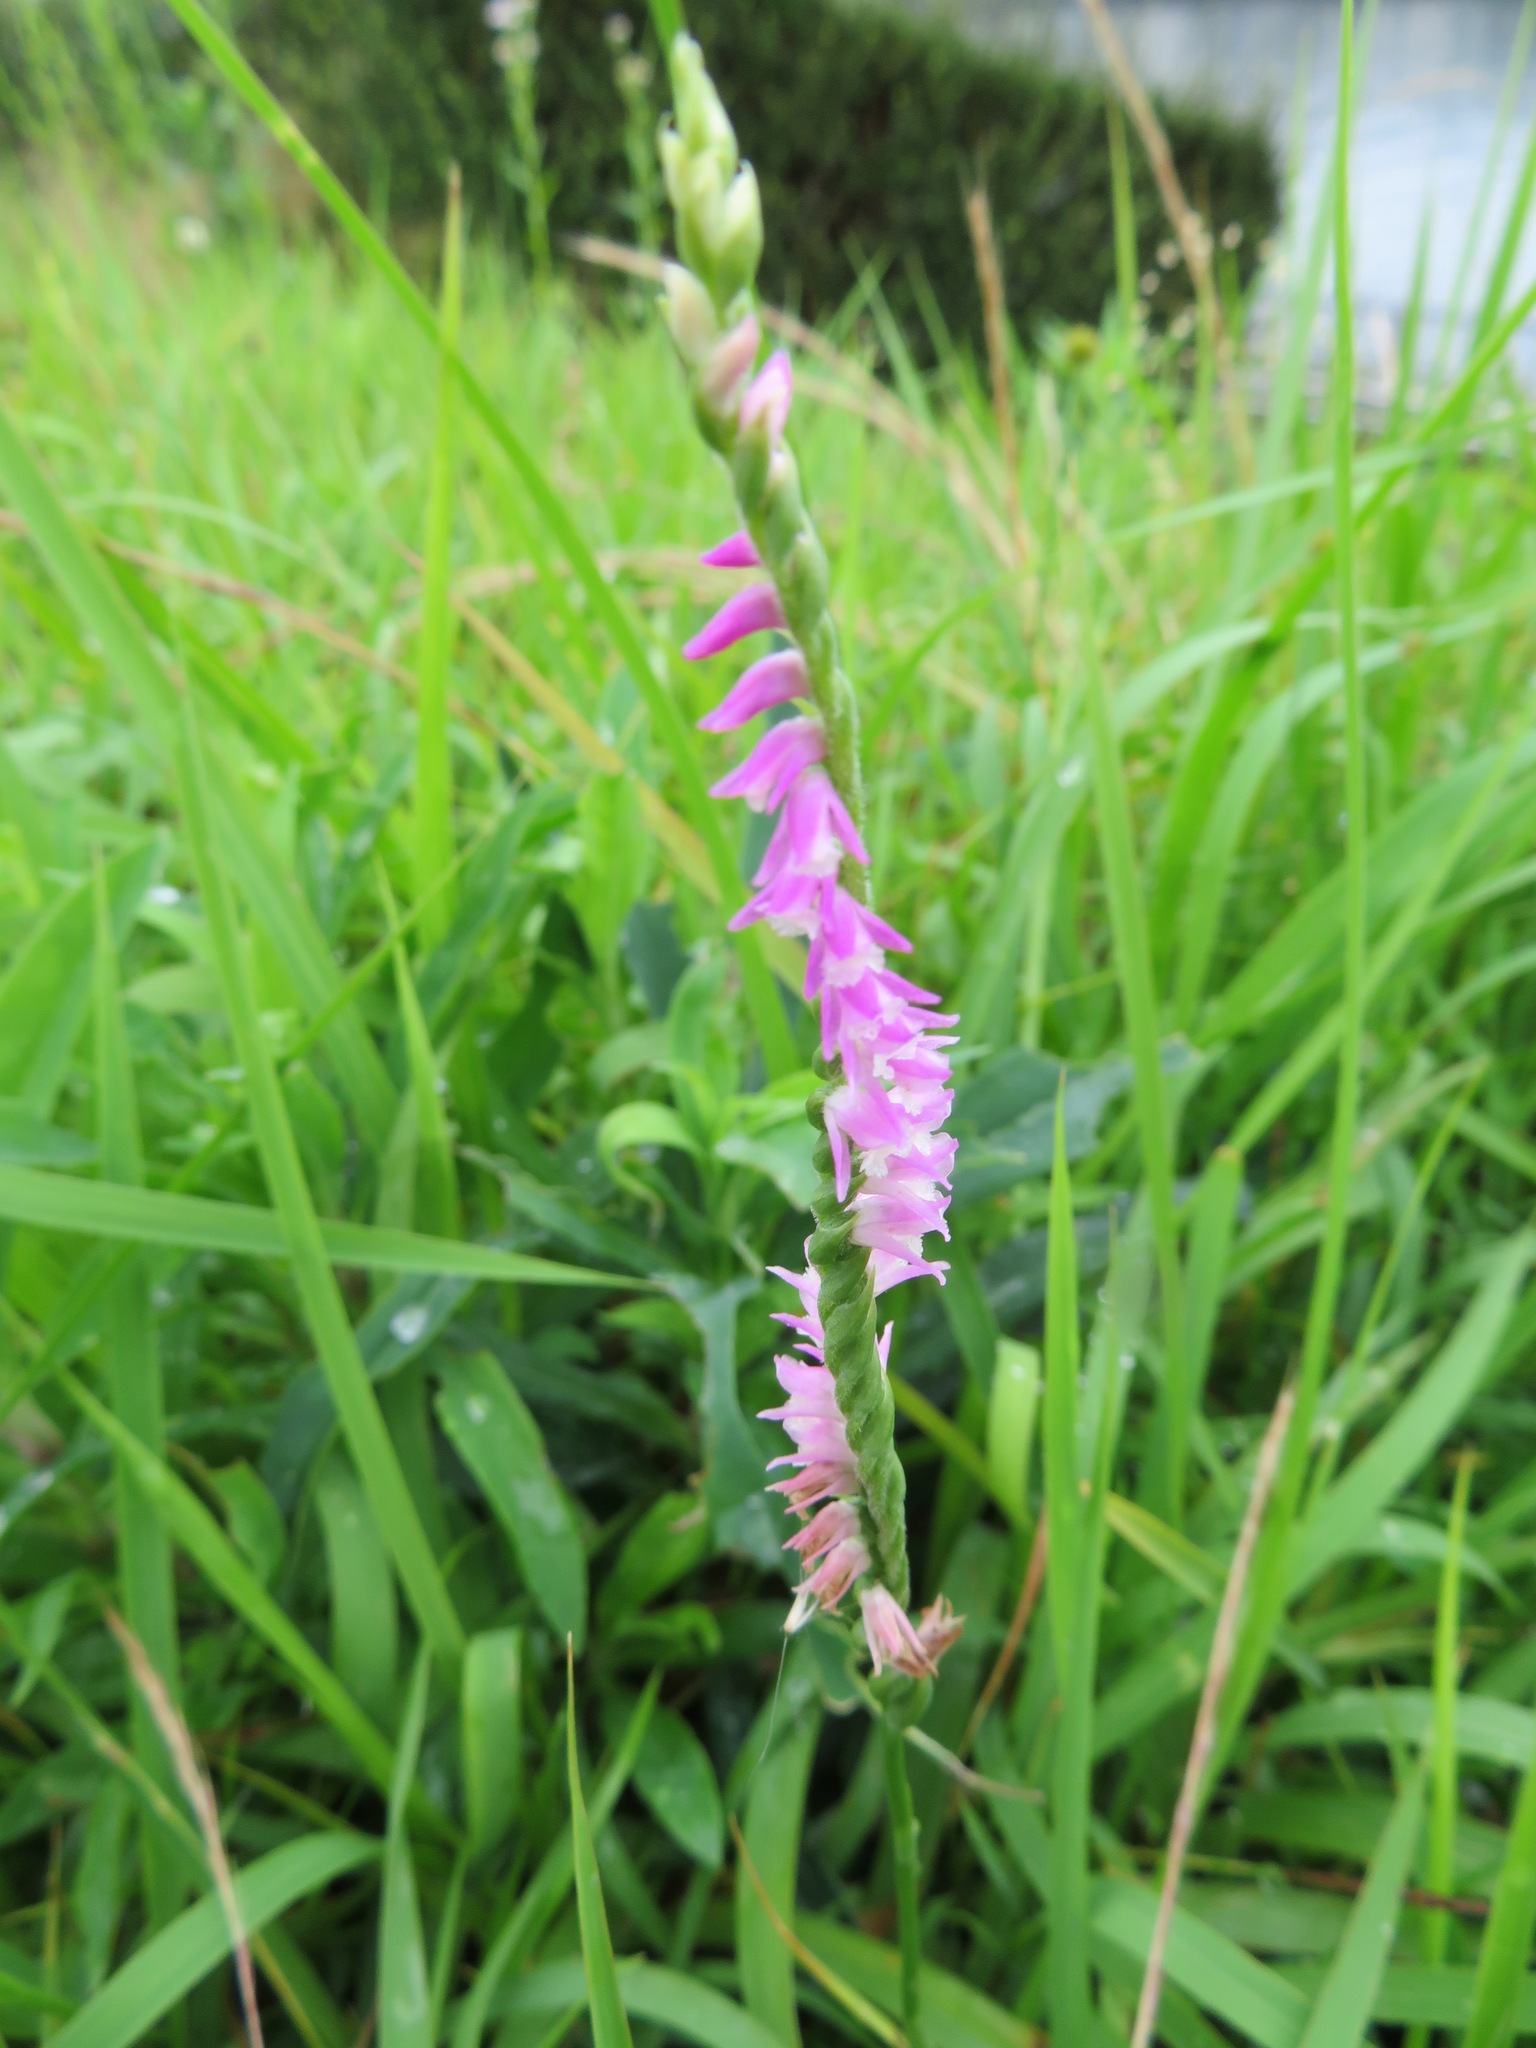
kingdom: Plantae
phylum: Tracheophyta
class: Liliopsida
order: Asparagales
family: Orchidaceae
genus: Spiranthes
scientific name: Spiranthes australis
